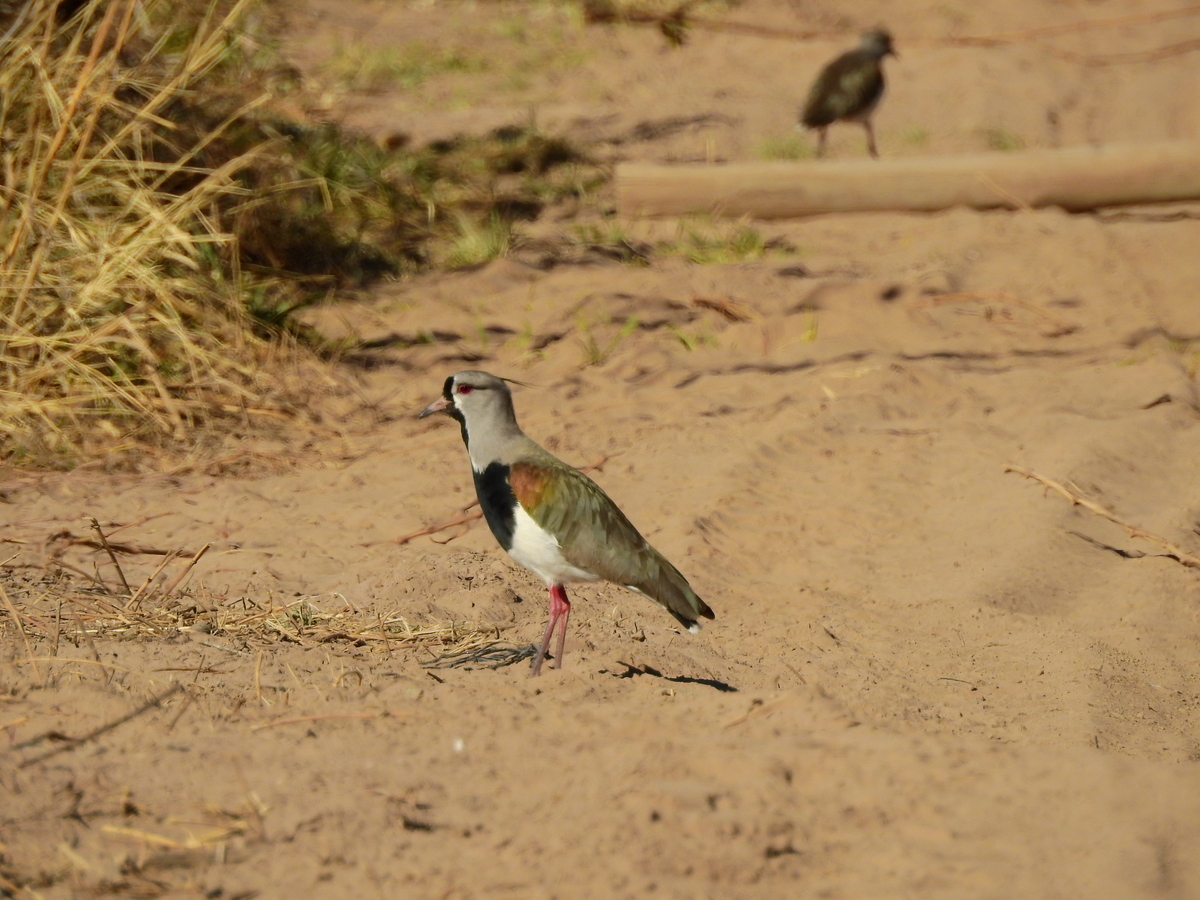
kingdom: Animalia
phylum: Chordata
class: Aves
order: Charadriiformes
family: Charadriidae
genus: Vanellus
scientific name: Vanellus chilensis
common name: Southern lapwing
